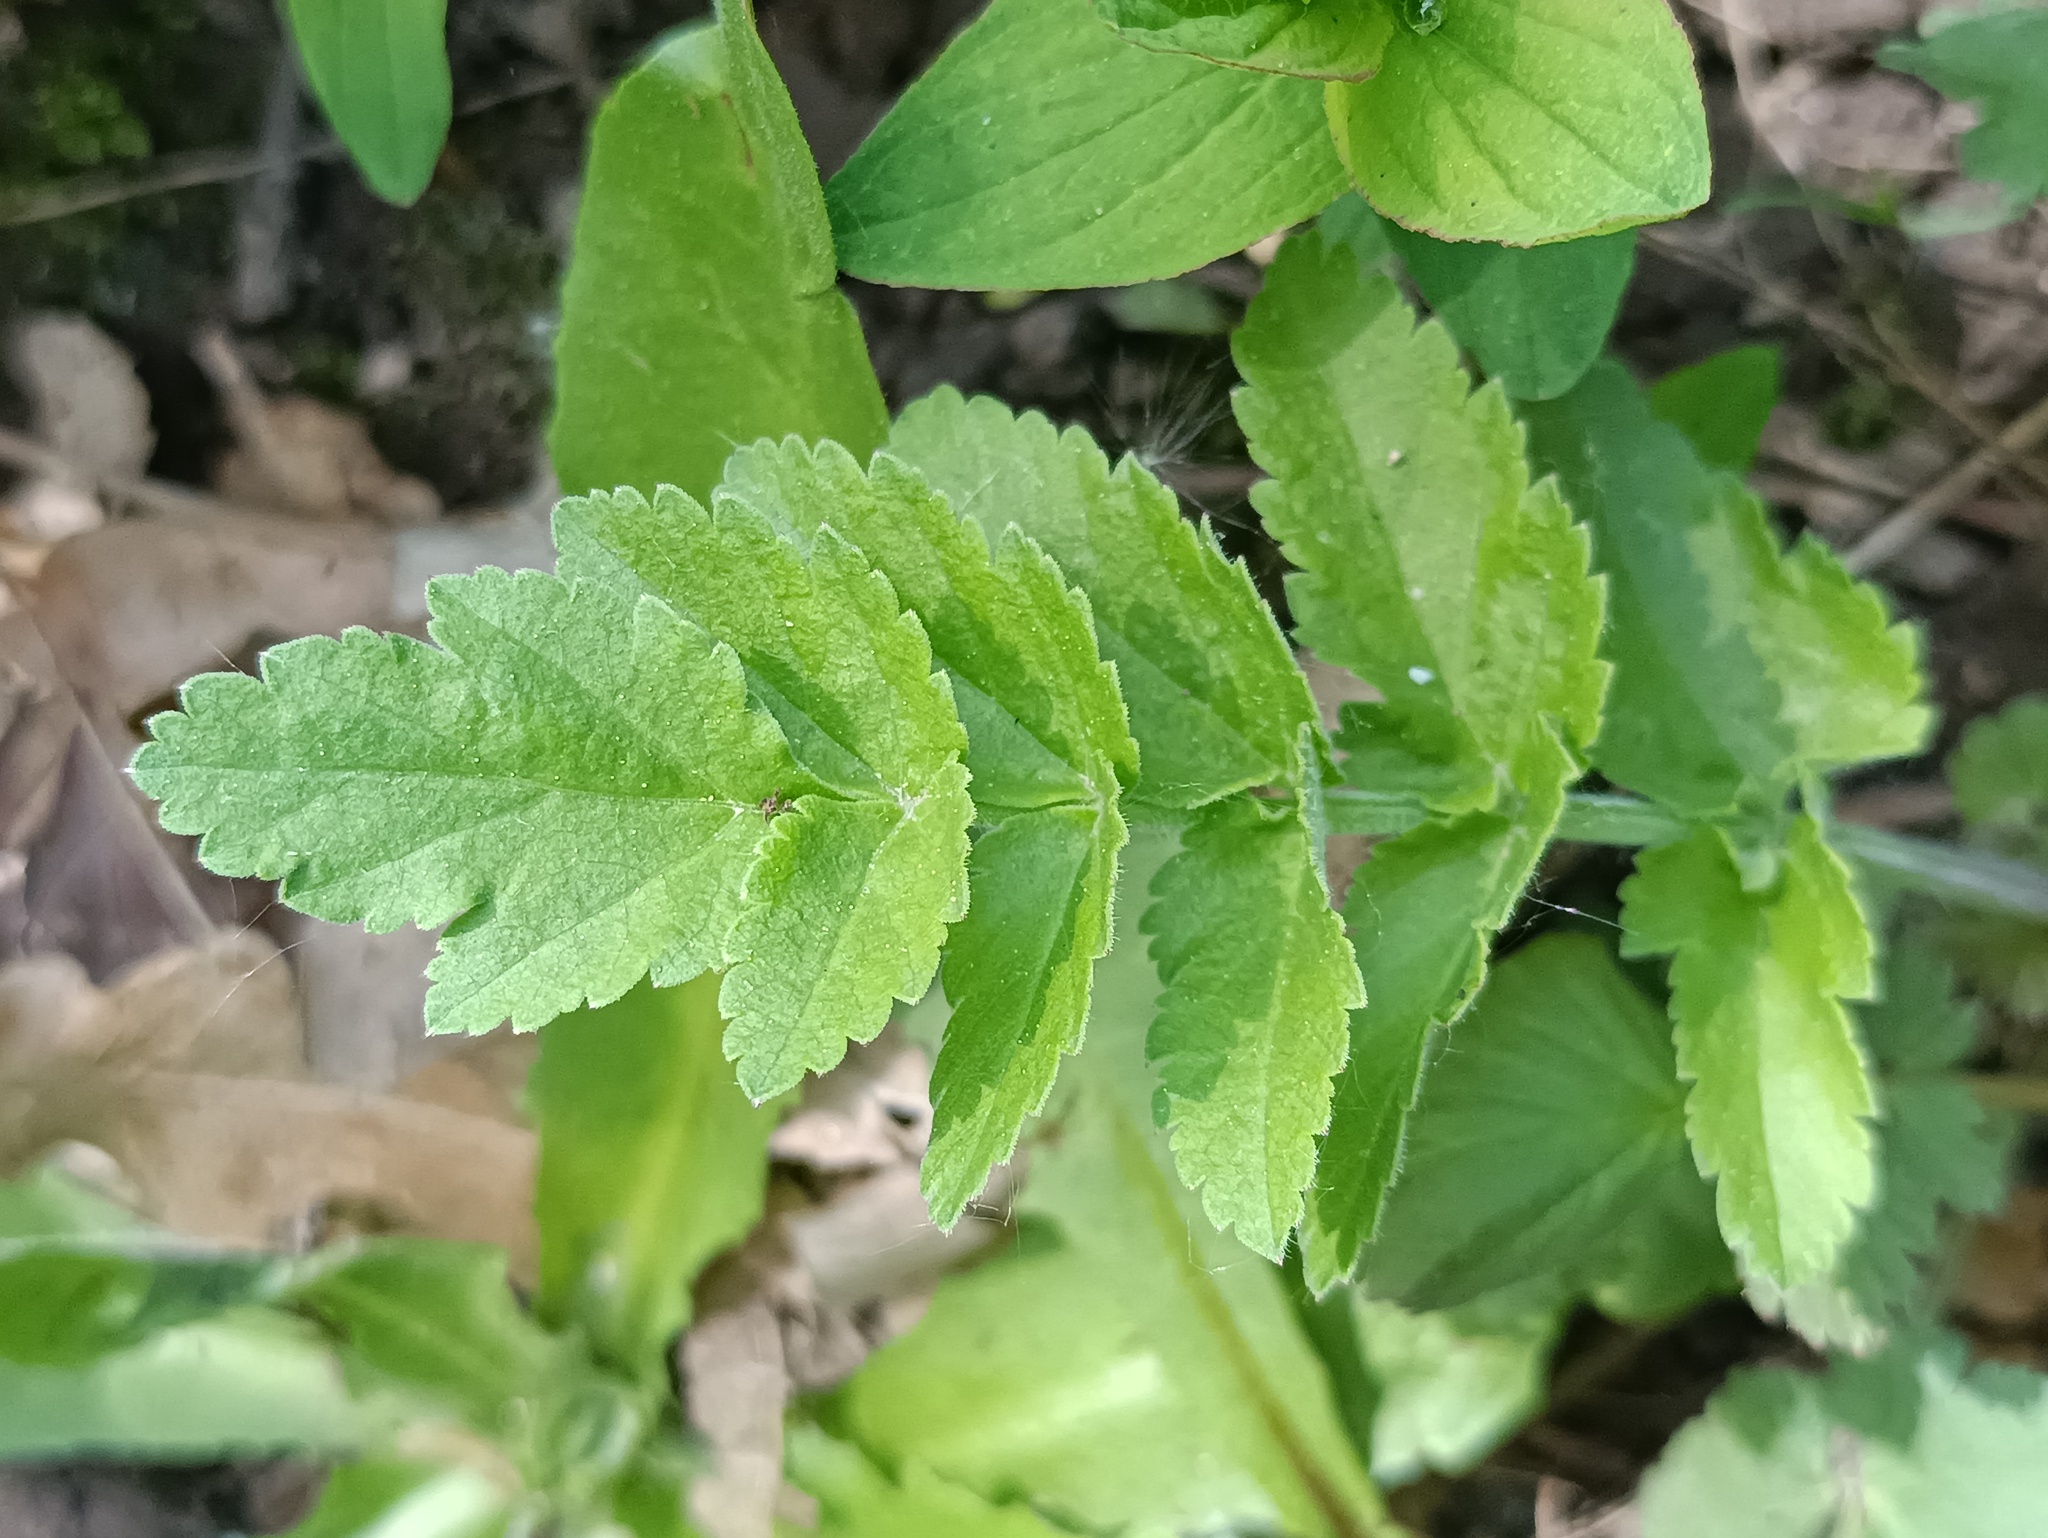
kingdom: Plantae
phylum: Tracheophyta
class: Magnoliopsida
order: Apiales
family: Apiaceae
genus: Pastinaca
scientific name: Pastinaca sativa
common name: Wild parsnip
